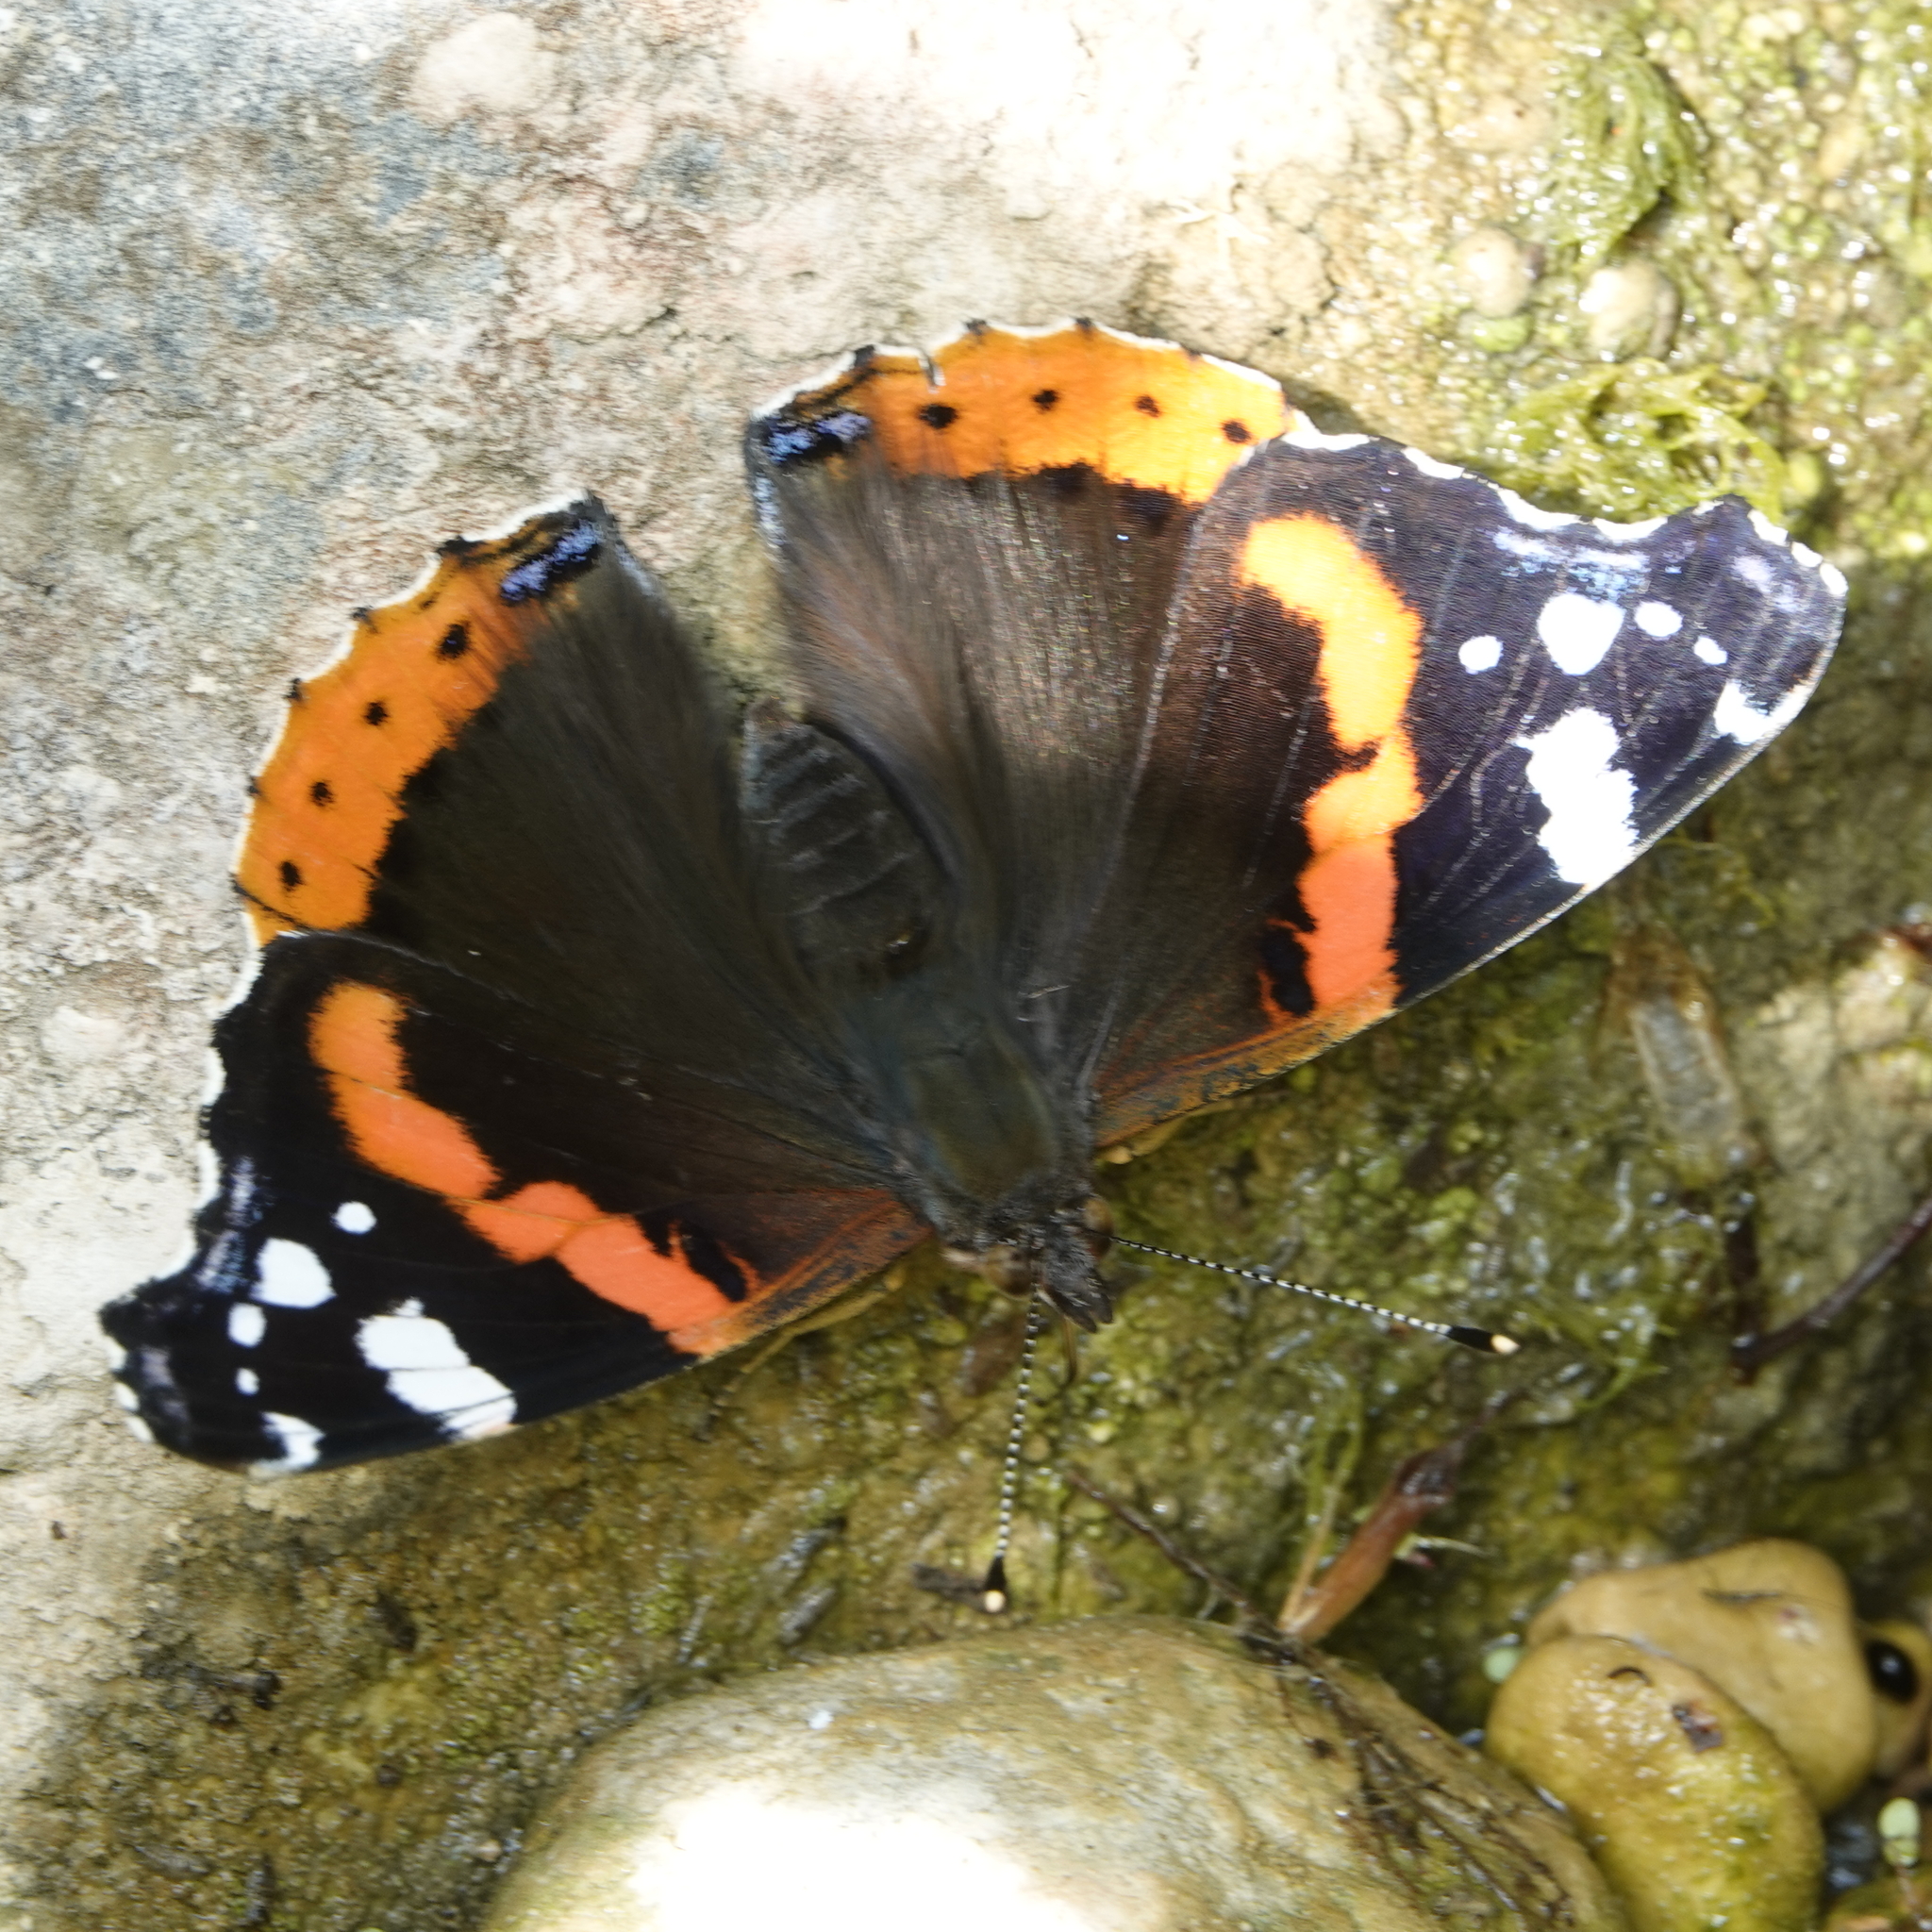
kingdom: Animalia
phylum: Arthropoda
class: Insecta
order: Lepidoptera
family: Nymphalidae
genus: Vanessa
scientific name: Vanessa atalanta
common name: Red admiral
